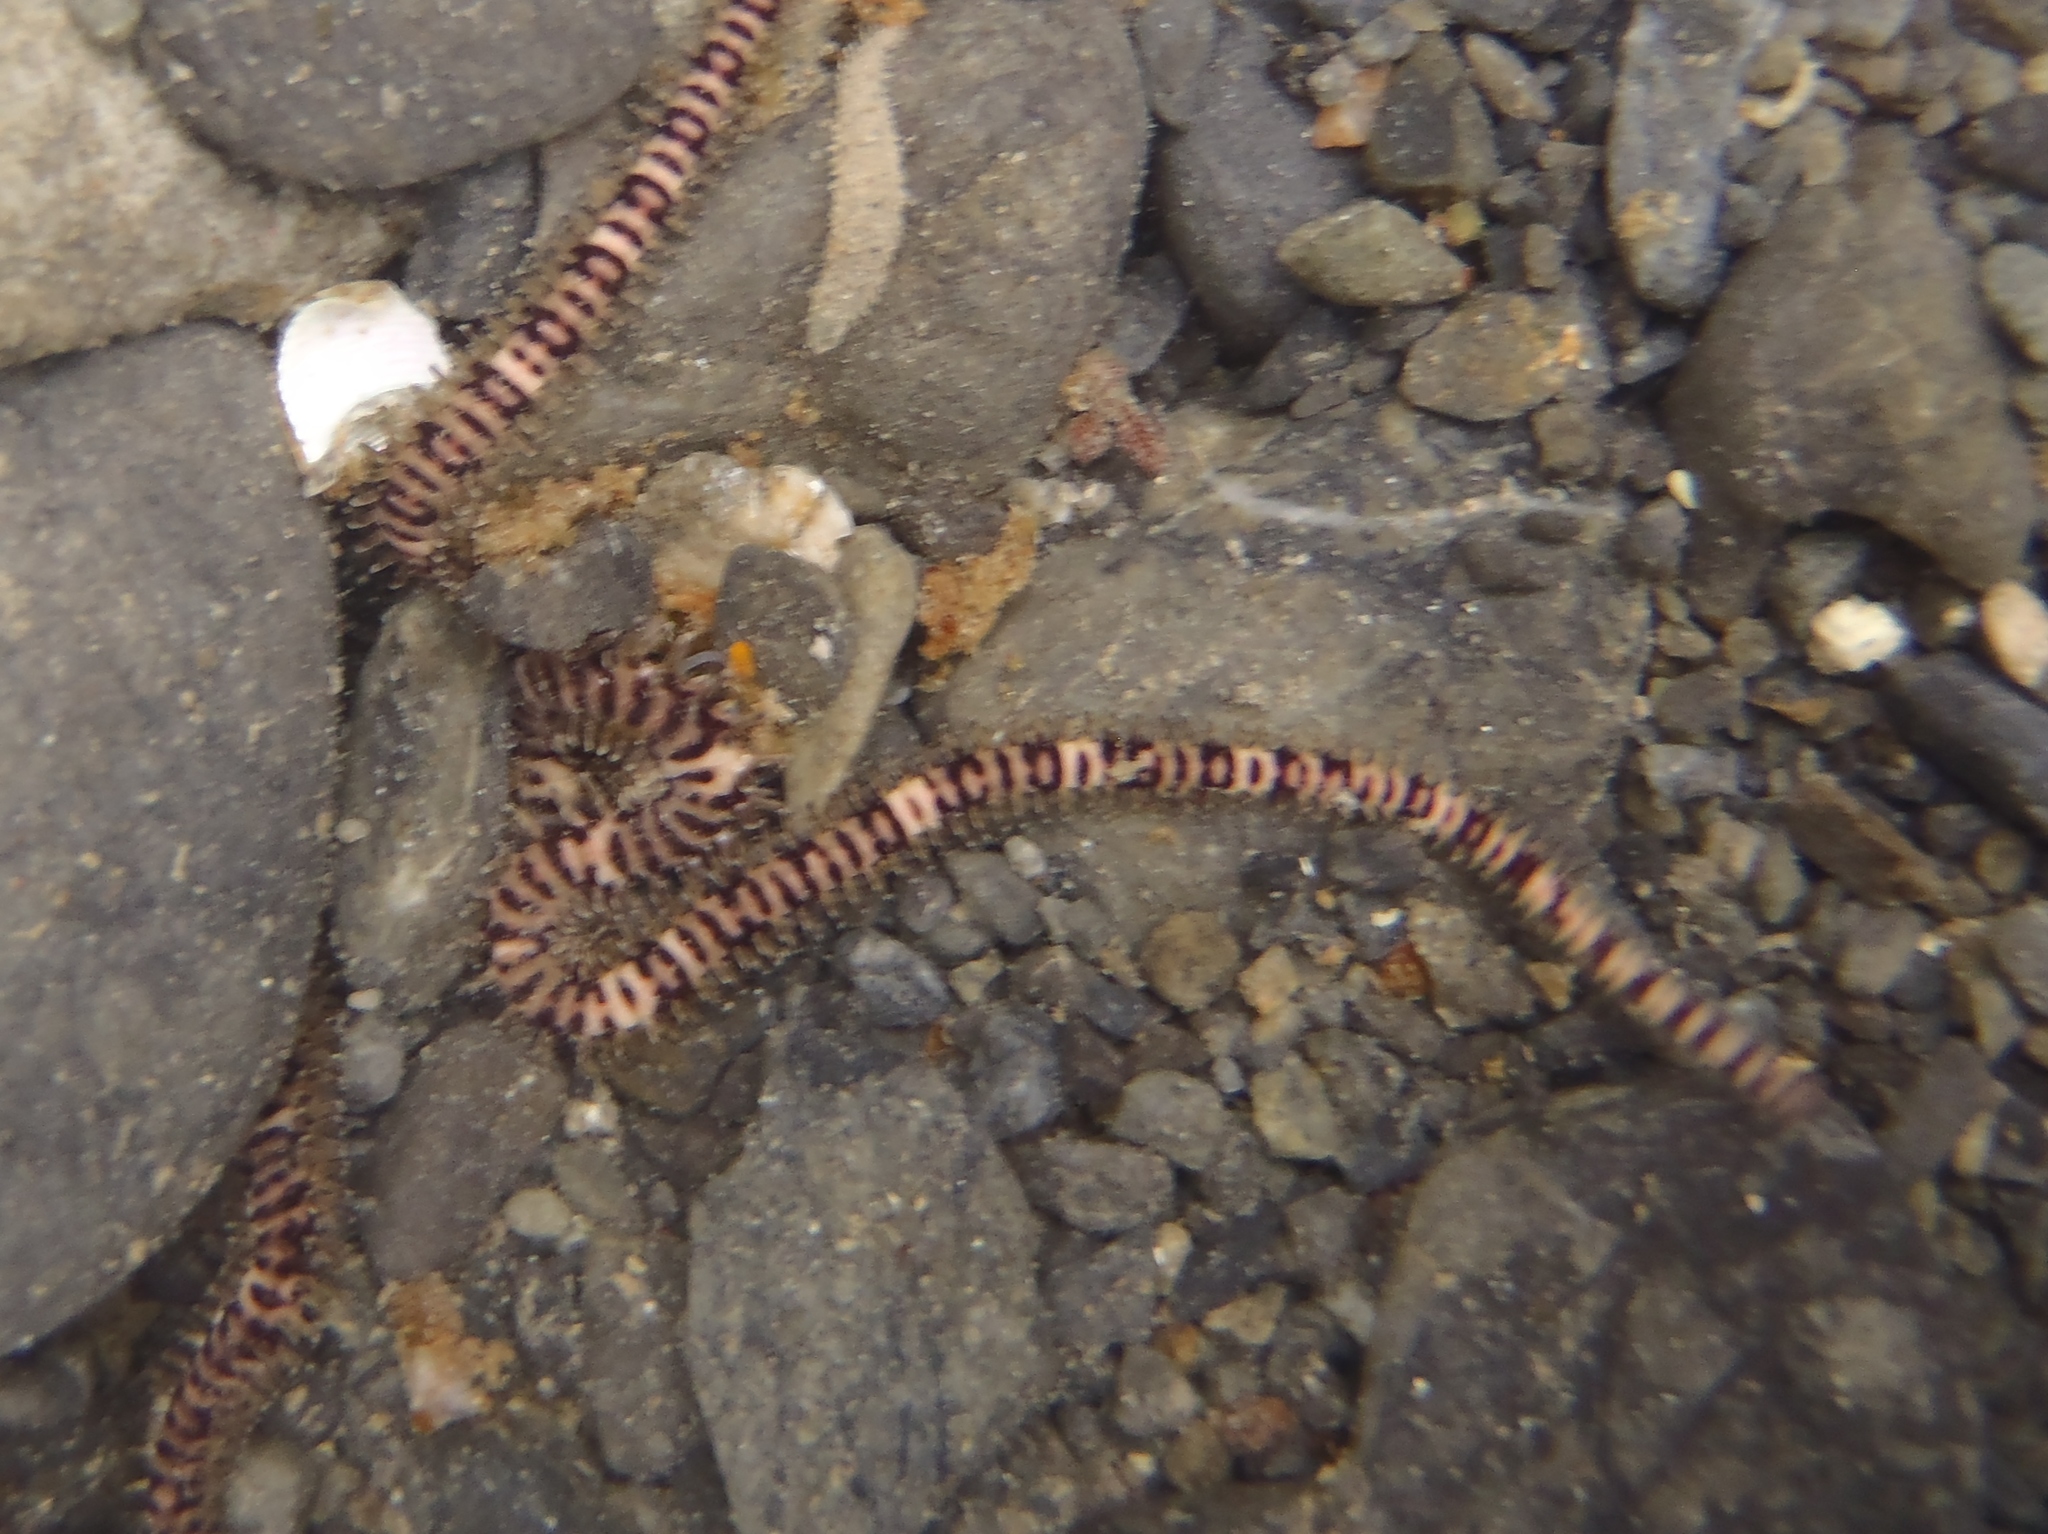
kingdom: Animalia
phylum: Echinodermata
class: Ophiuroidea
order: Amphilepidida
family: Ophionereididae
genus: Ophionereis
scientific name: Ophionereis fasciata
